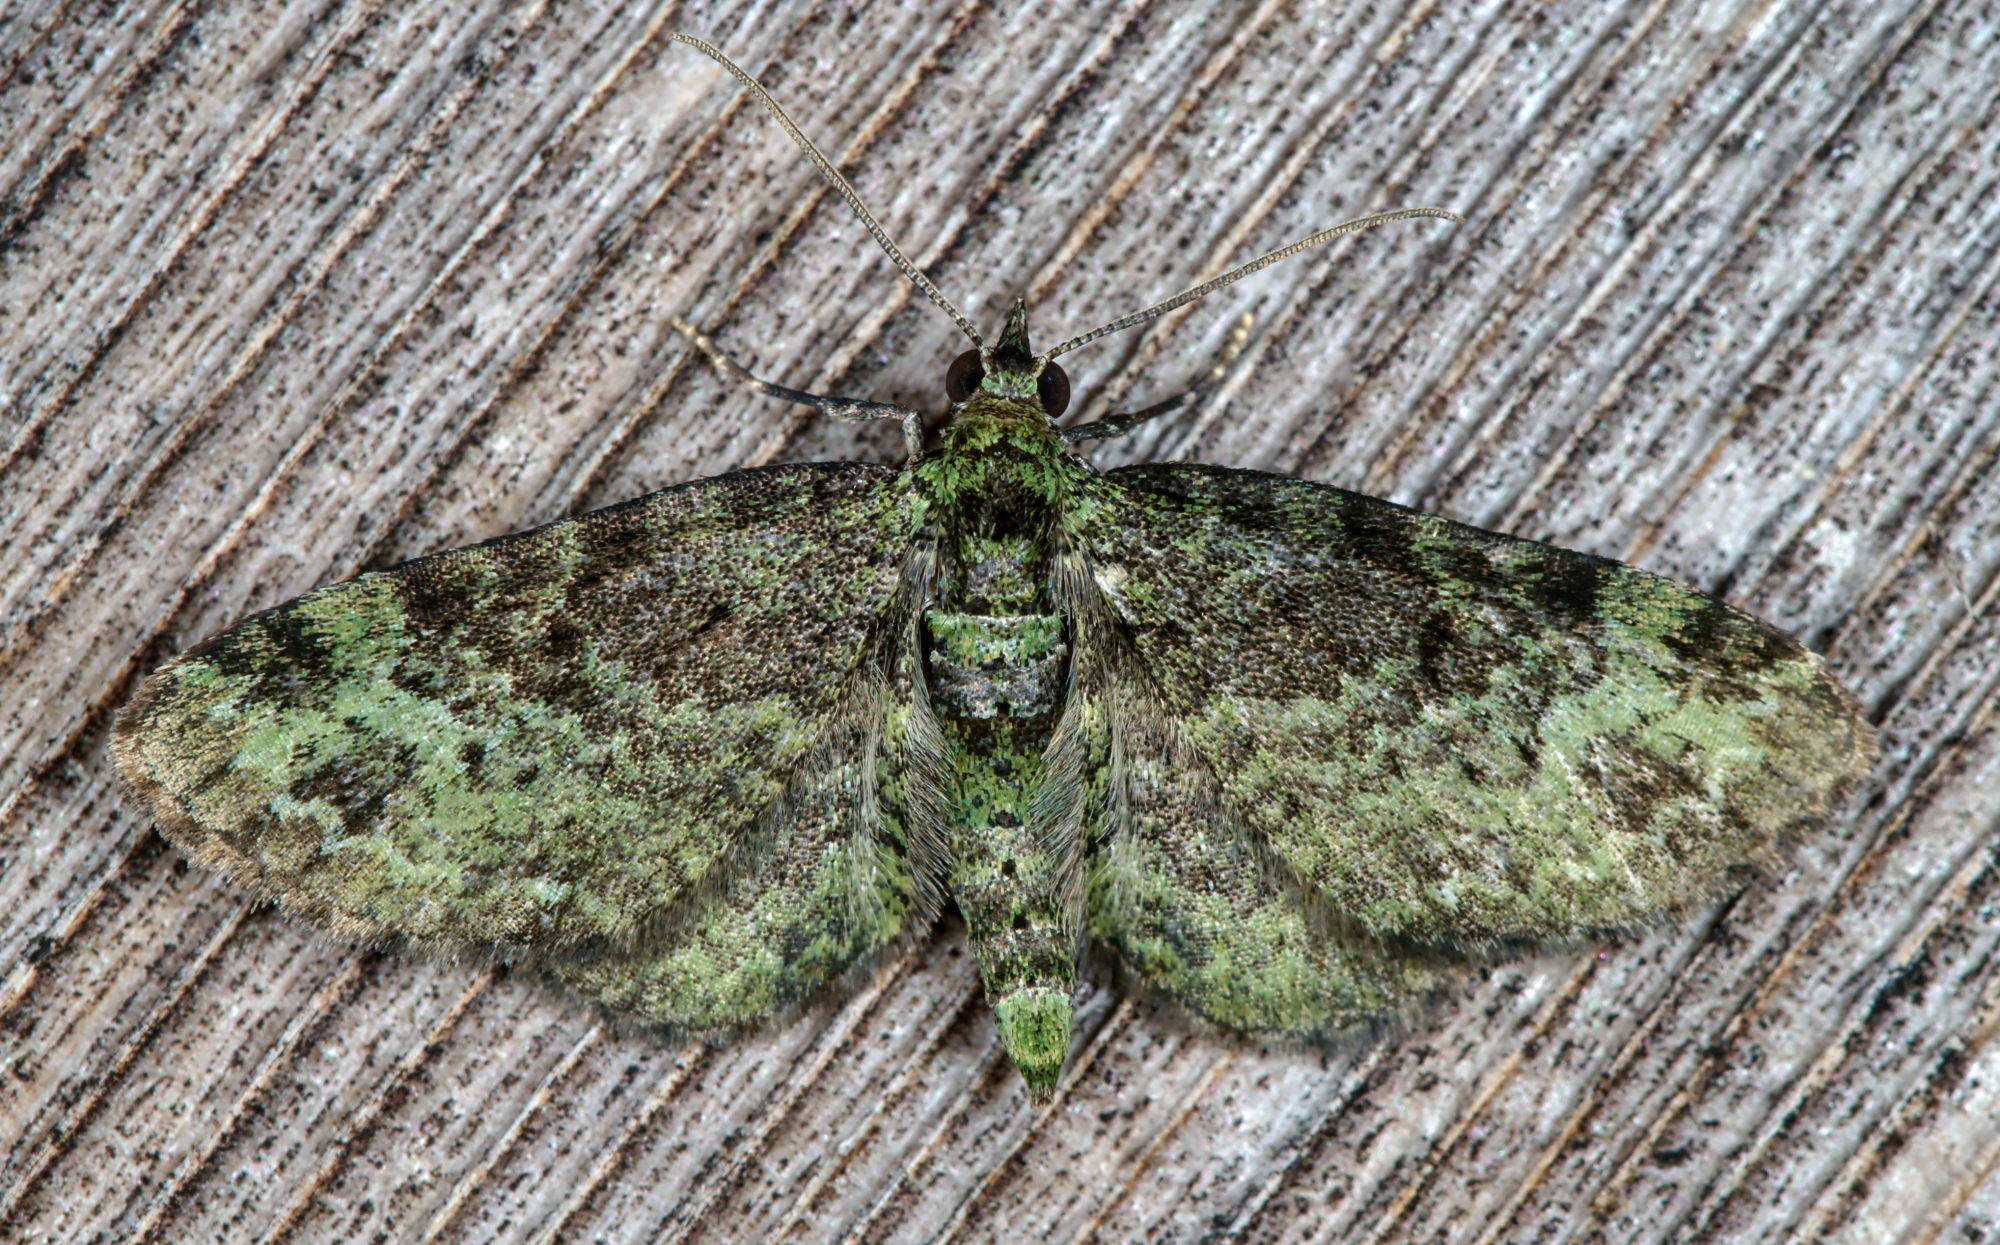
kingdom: Animalia
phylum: Arthropoda
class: Insecta
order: Lepidoptera
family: Geometridae
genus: Pasiphila
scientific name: Pasiphila rectangulata
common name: Green pug
